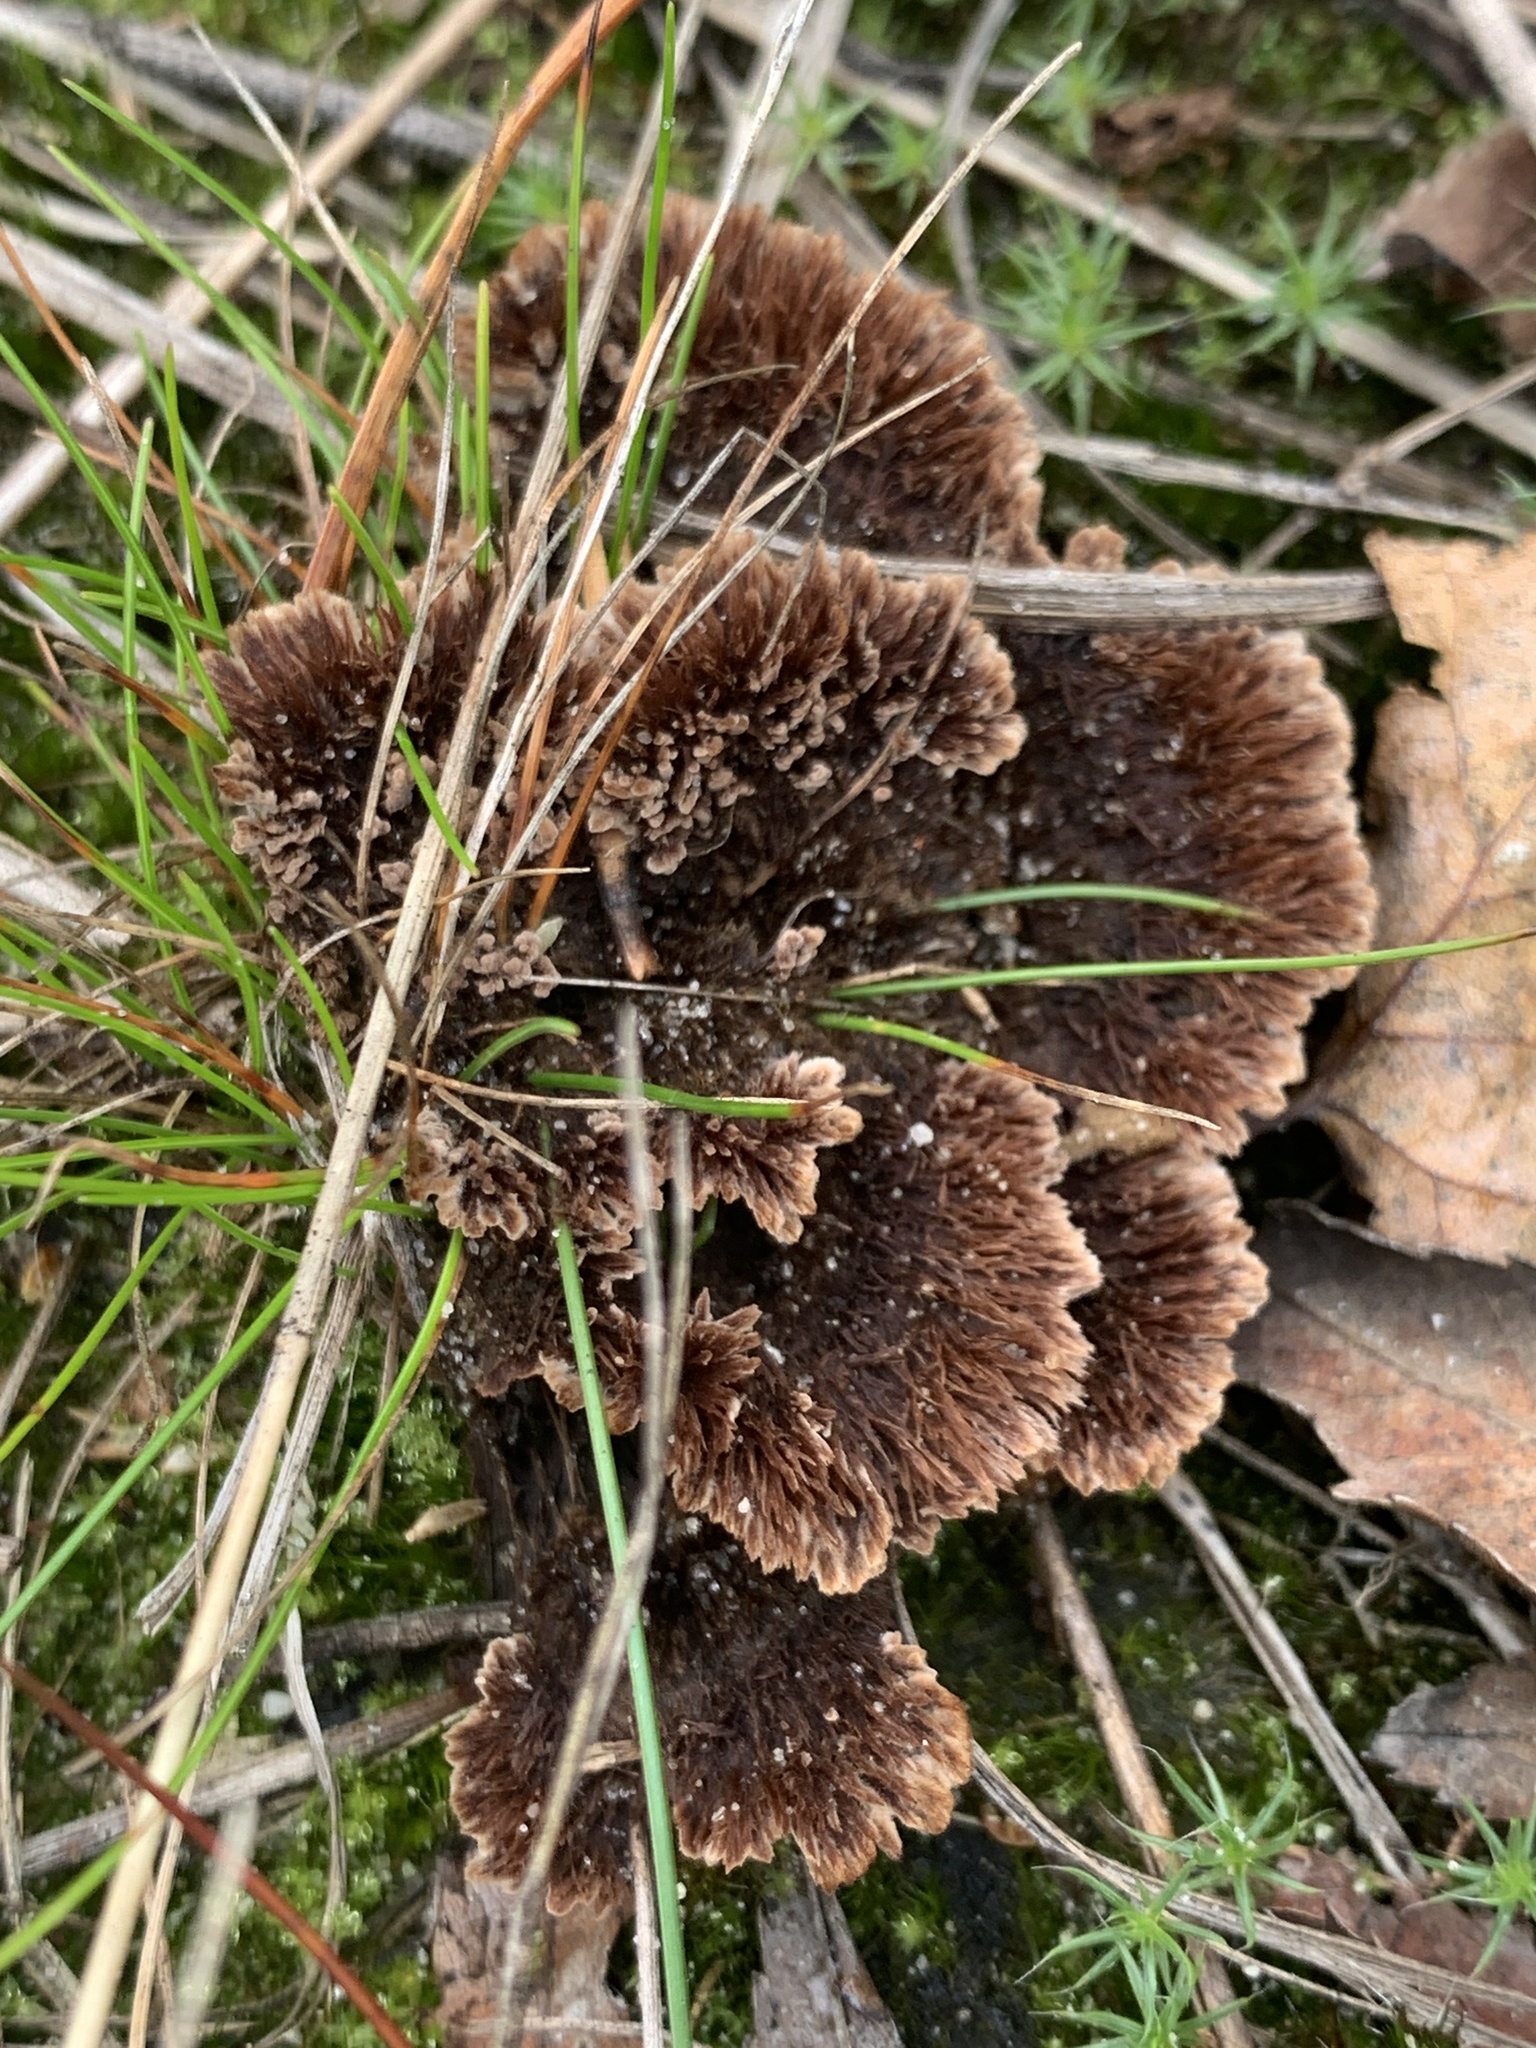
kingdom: Fungi
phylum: Basidiomycota
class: Agaricomycetes
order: Thelephorales
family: Thelephoraceae
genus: Thelephora
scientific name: Thelephora terrestris
